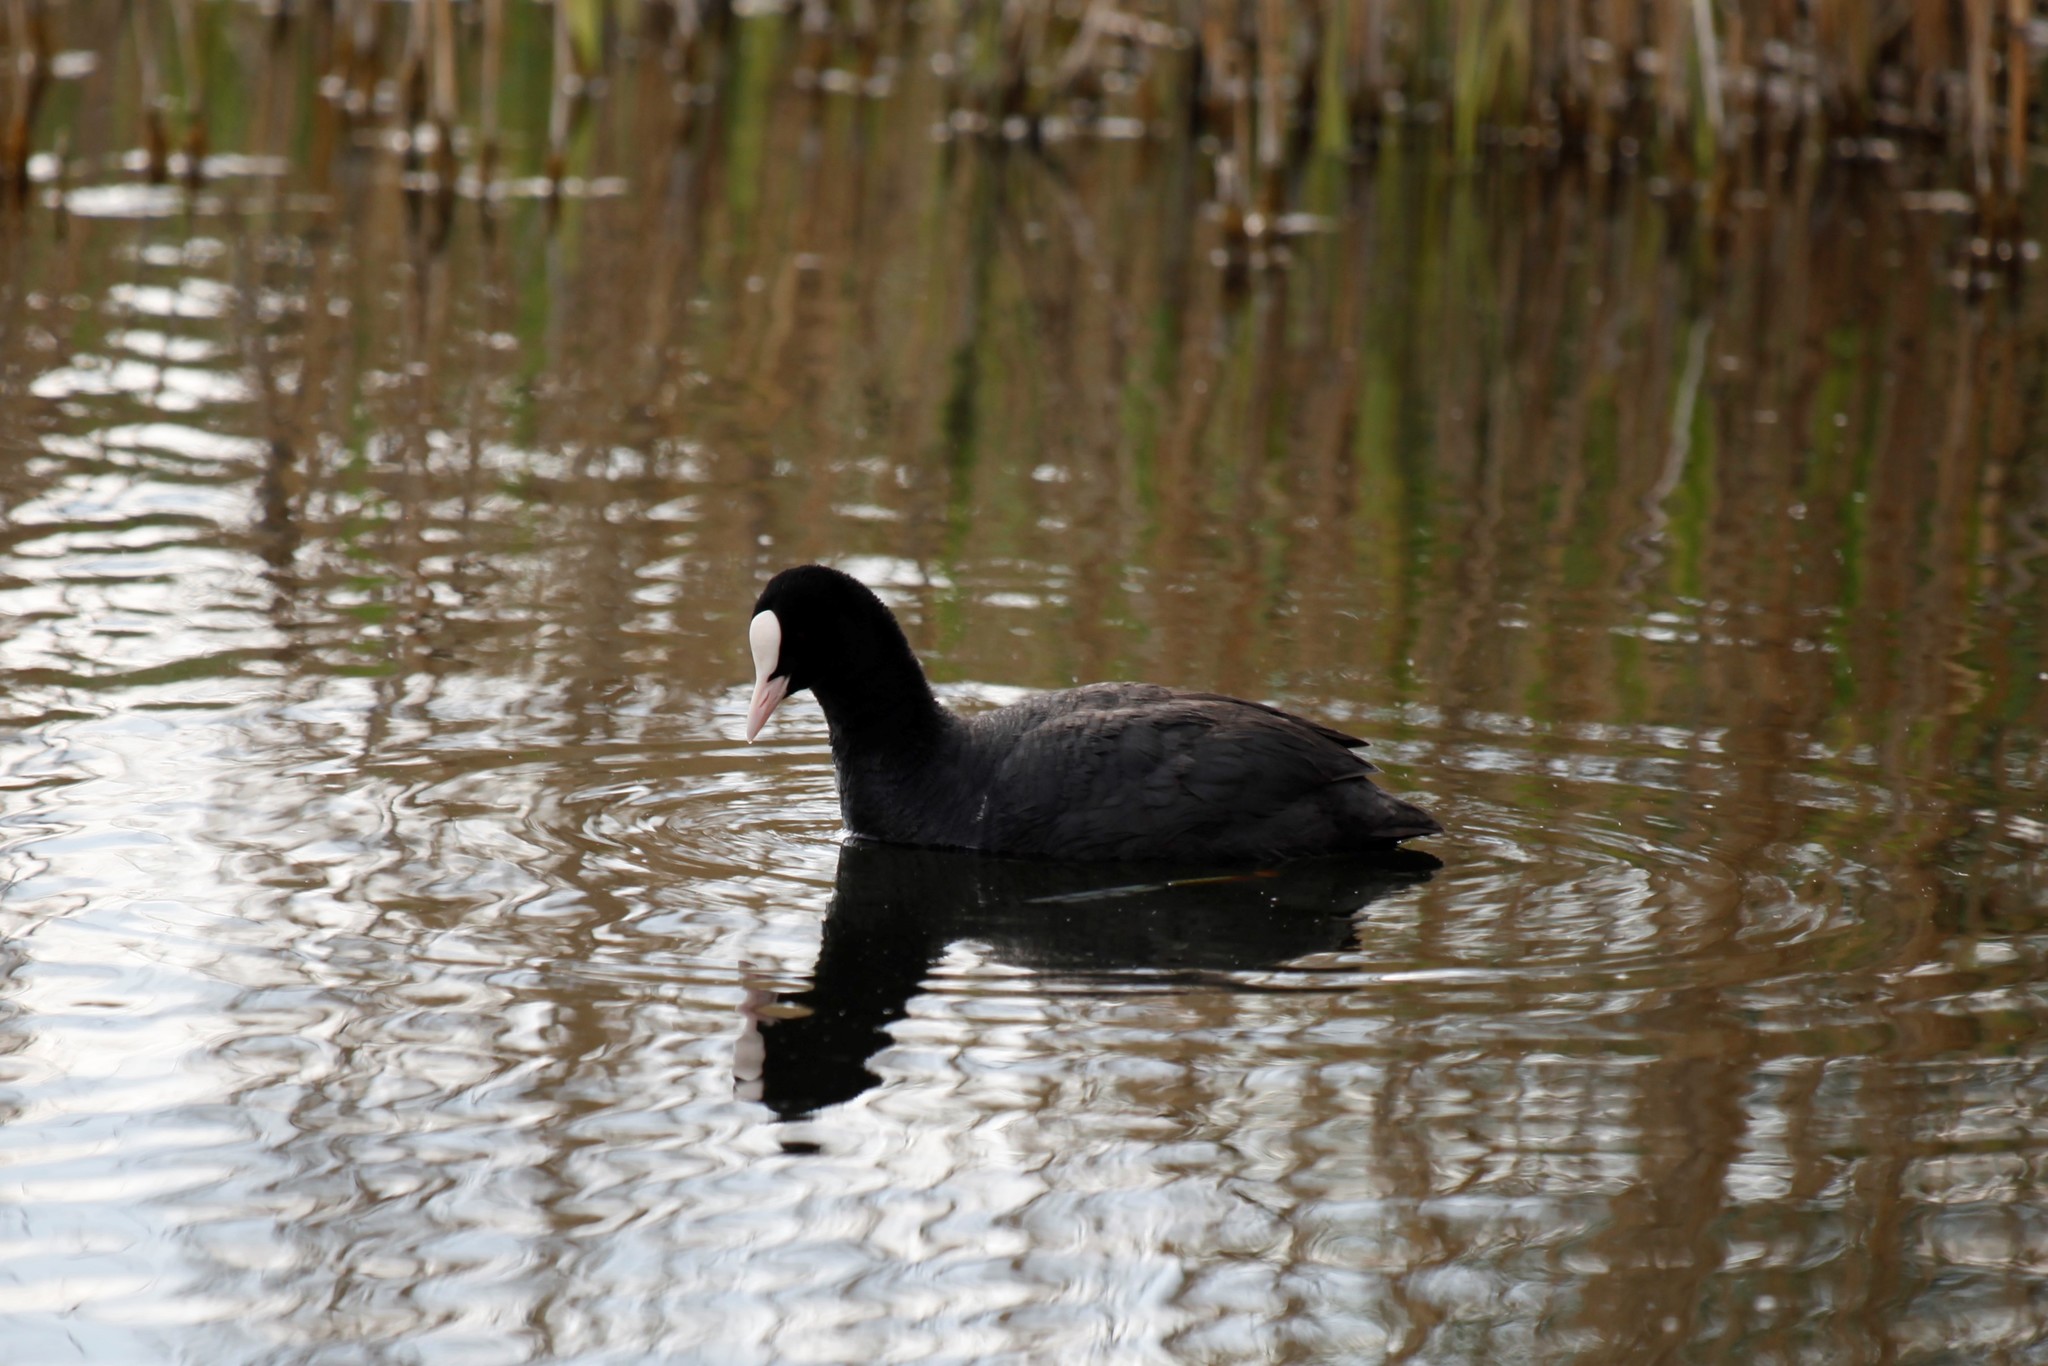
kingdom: Animalia
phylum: Chordata
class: Aves
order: Gruiformes
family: Rallidae
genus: Fulica
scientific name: Fulica atra
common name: Eurasian coot
